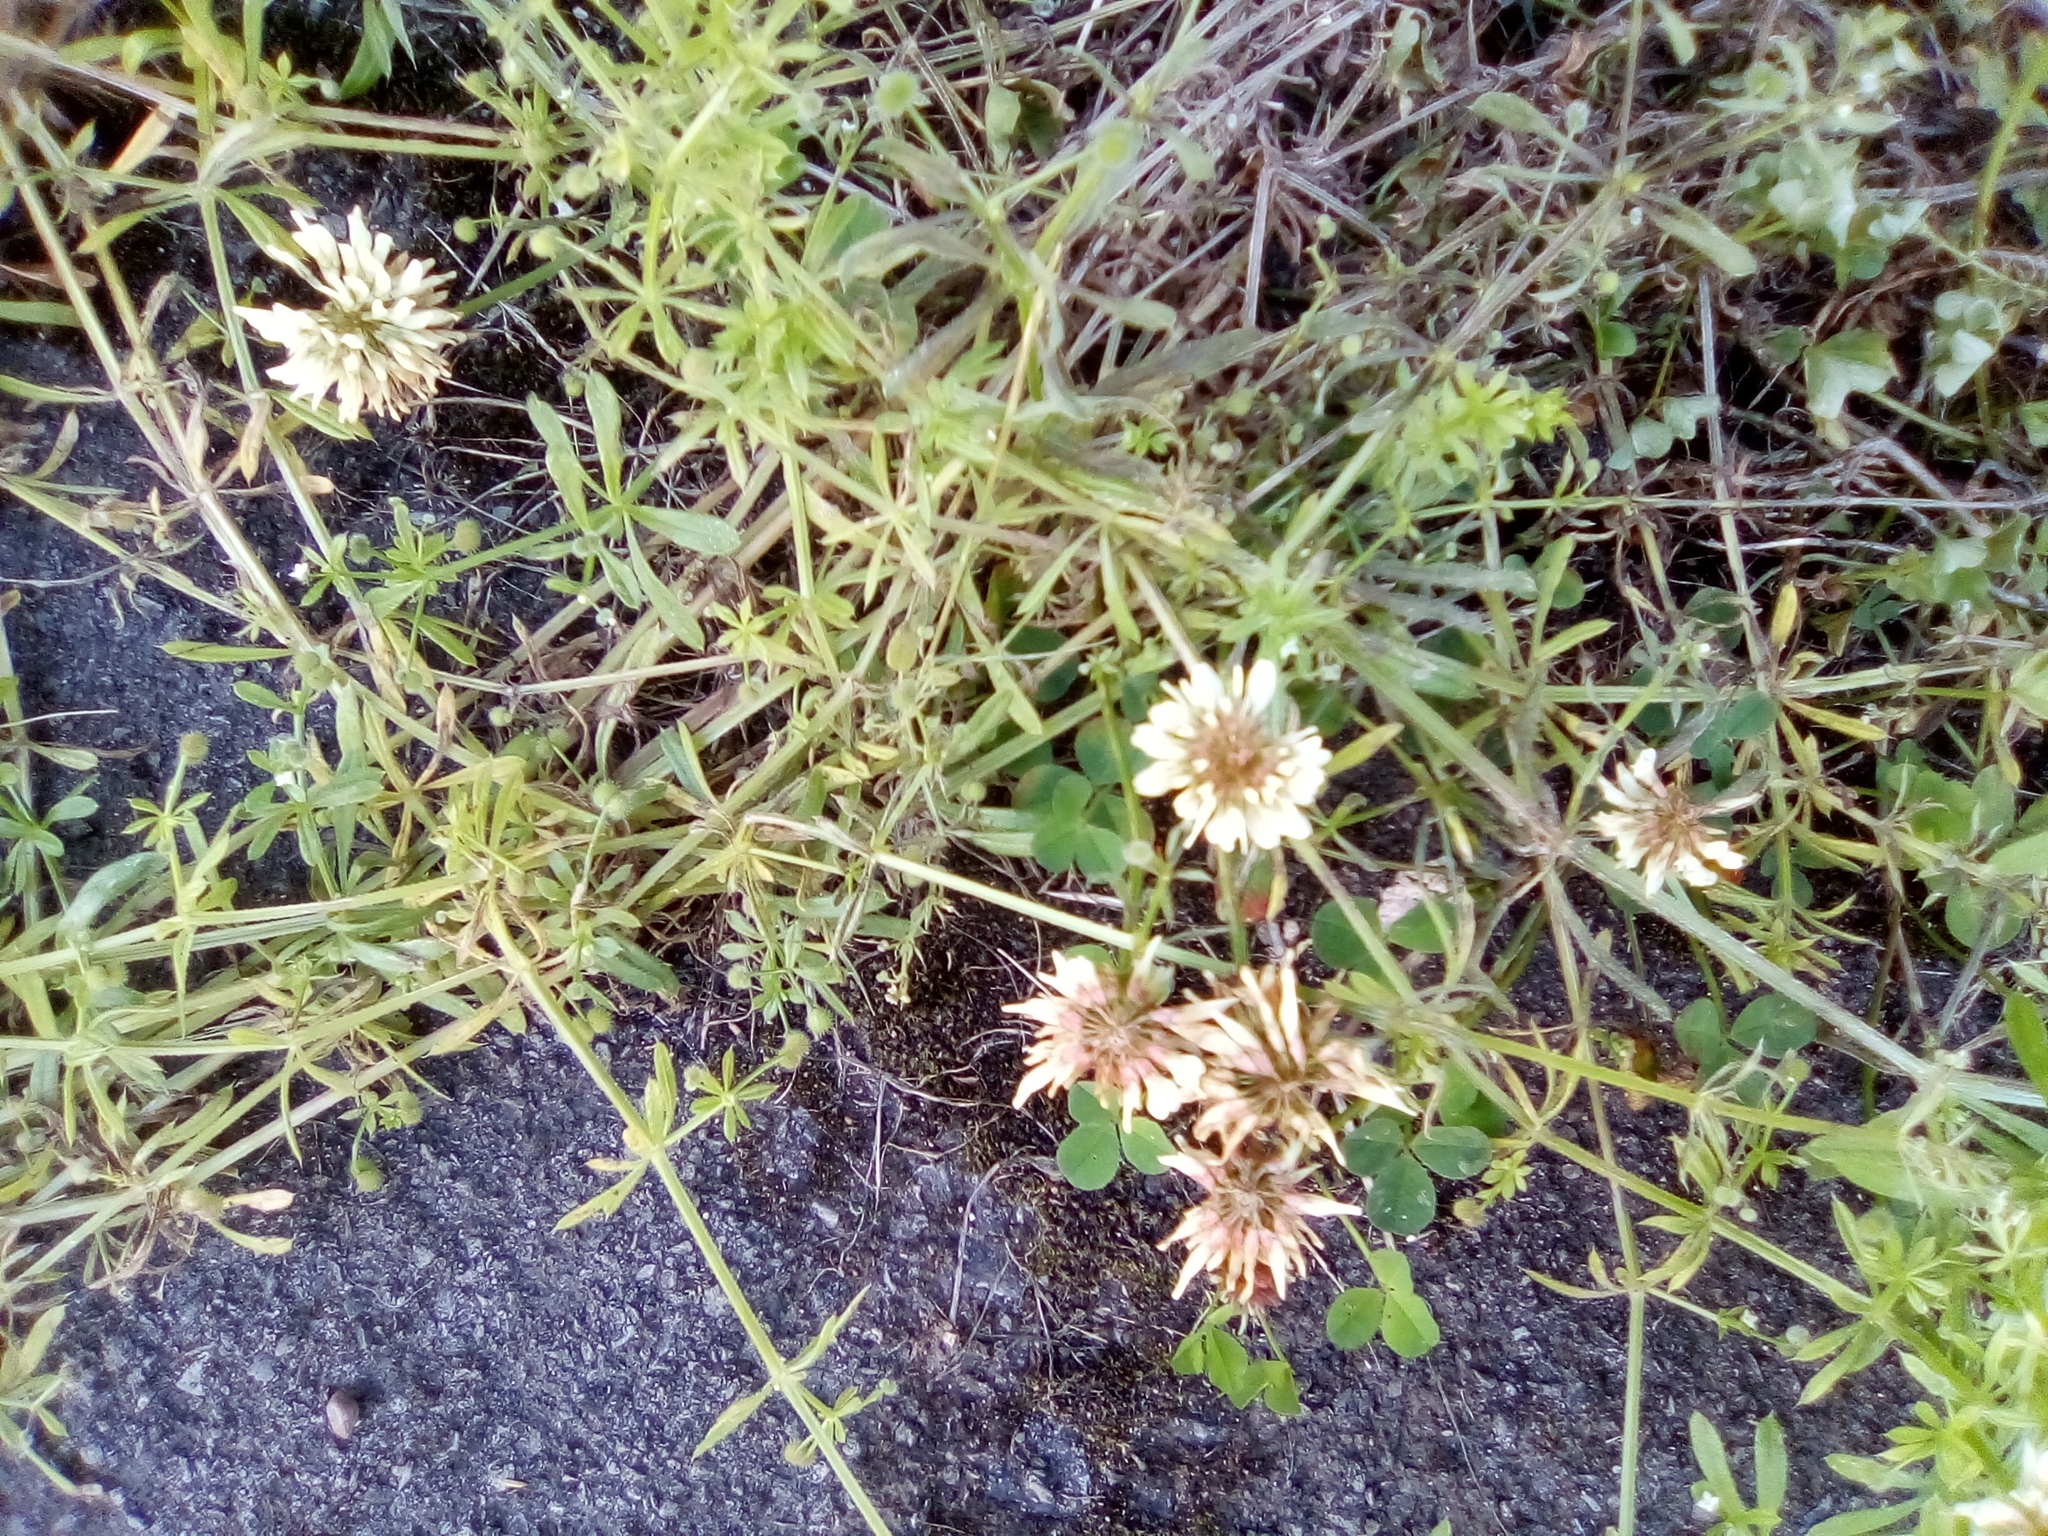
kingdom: Plantae
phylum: Tracheophyta
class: Magnoliopsida
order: Fabales
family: Fabaceae
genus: Trifolium
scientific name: Trifolium repens
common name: White clover
